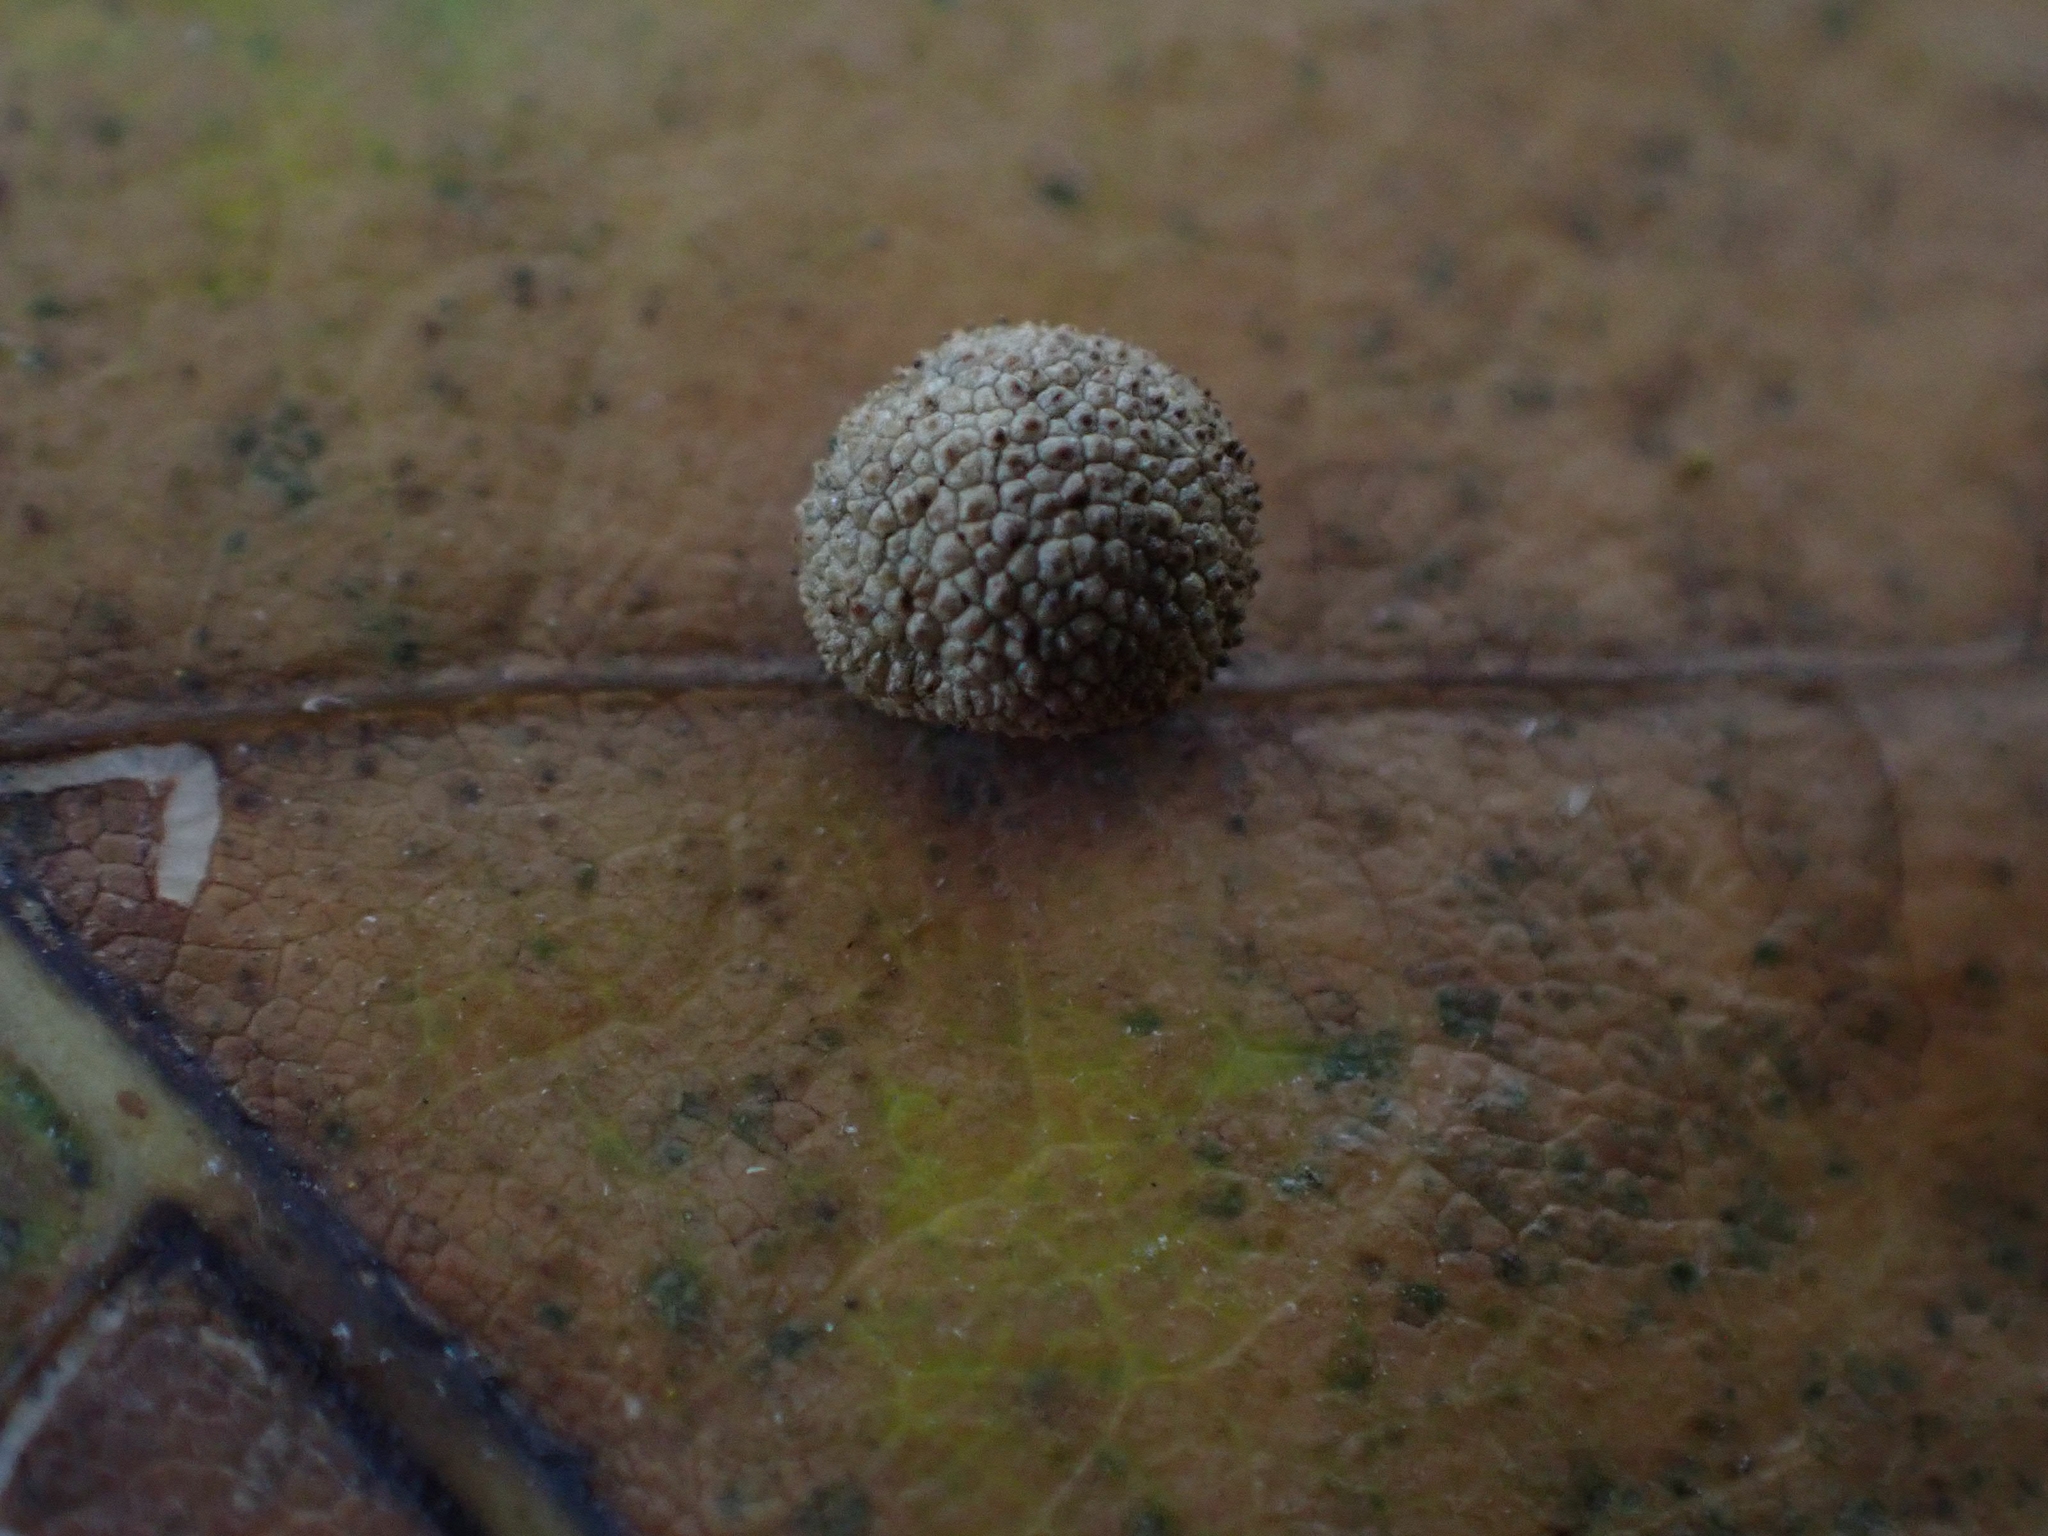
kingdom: Animalia
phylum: Arthropoda
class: Insecta
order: Hymenoptera
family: Cynipidae
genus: Acraspis
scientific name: Acraspis quercushirta
